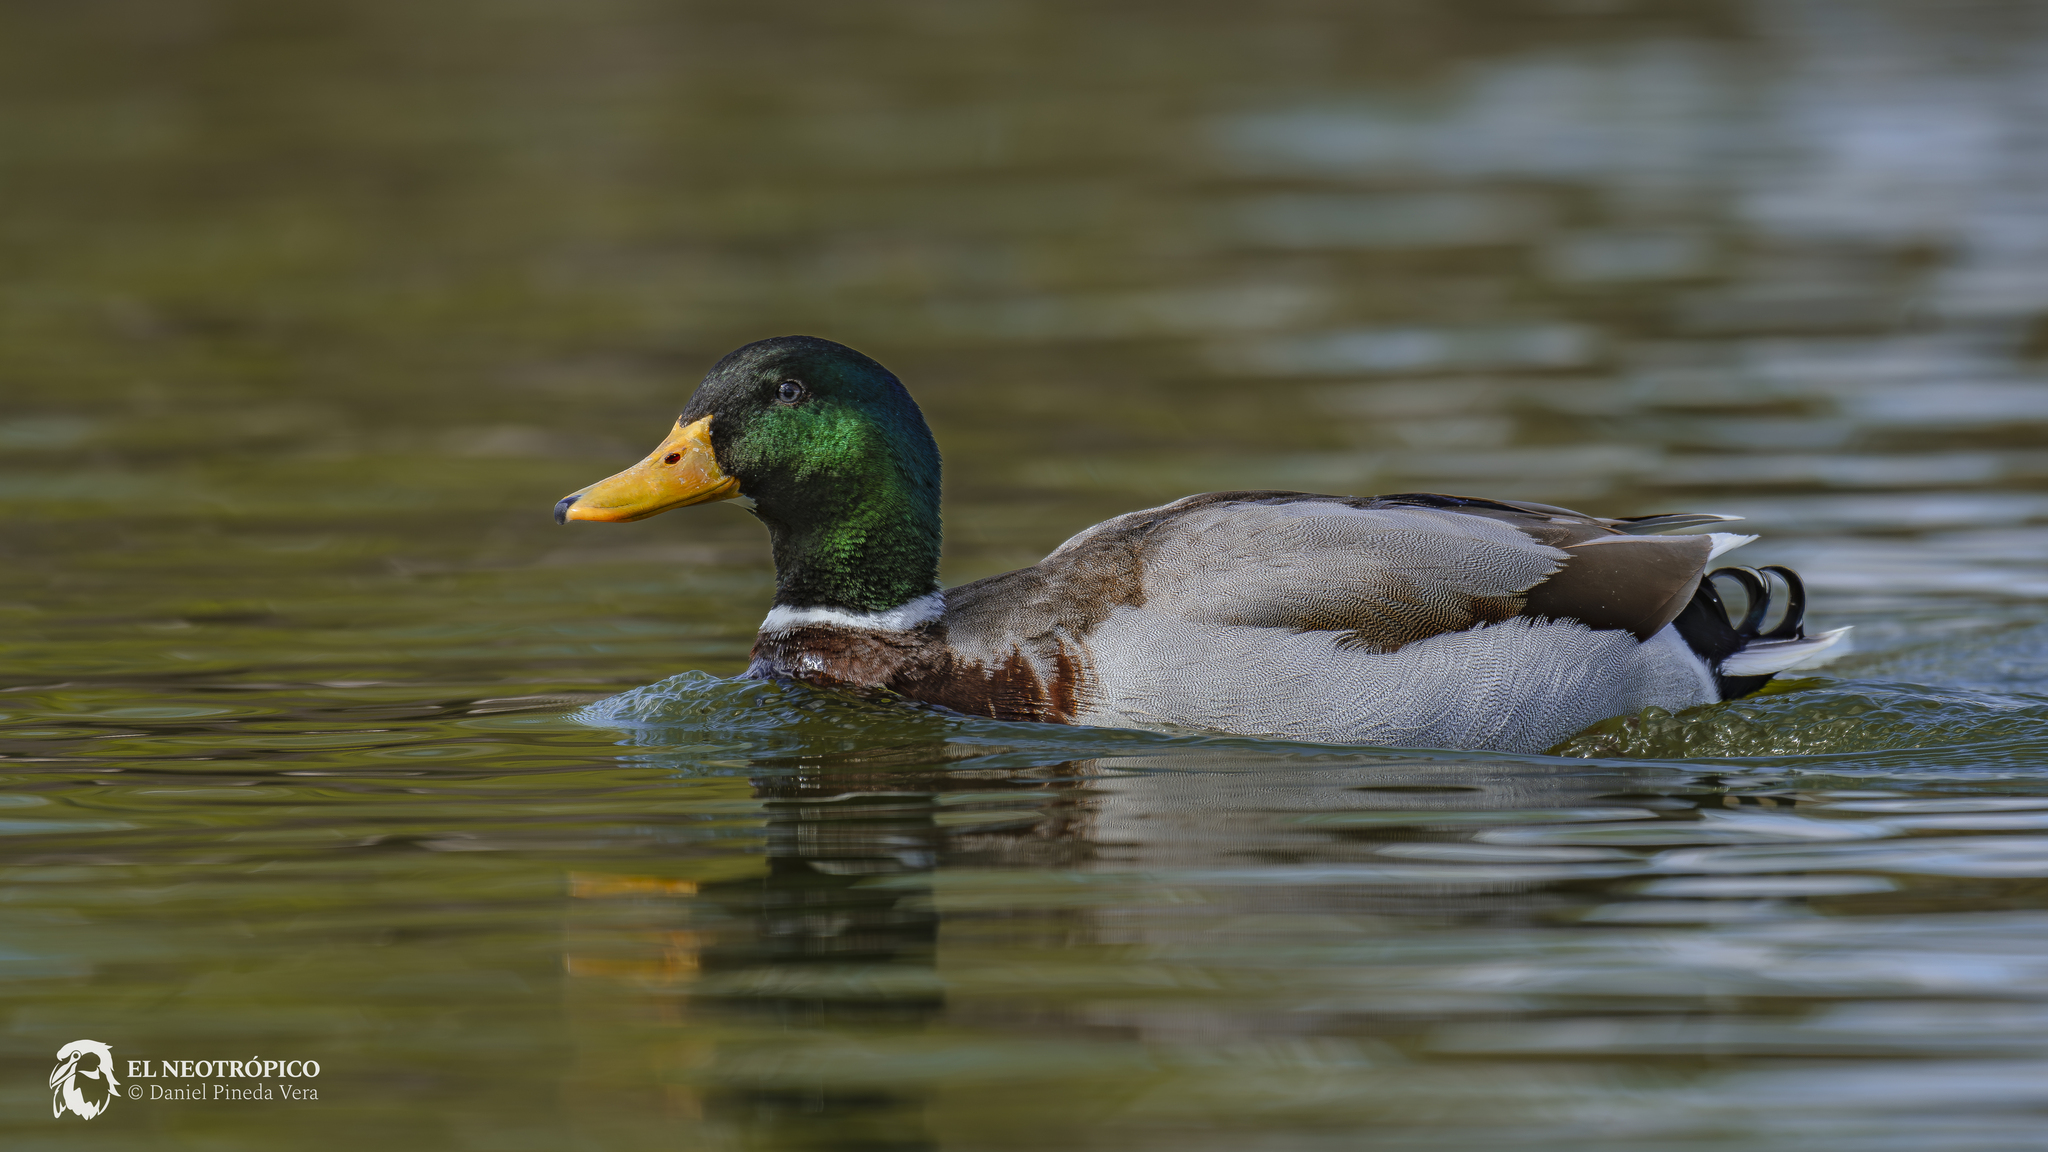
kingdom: Animalia
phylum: Chordata
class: Aves
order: Anseriformes
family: Anatidae
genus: Anas
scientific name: Anas platyrhynchos
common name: Mallard
